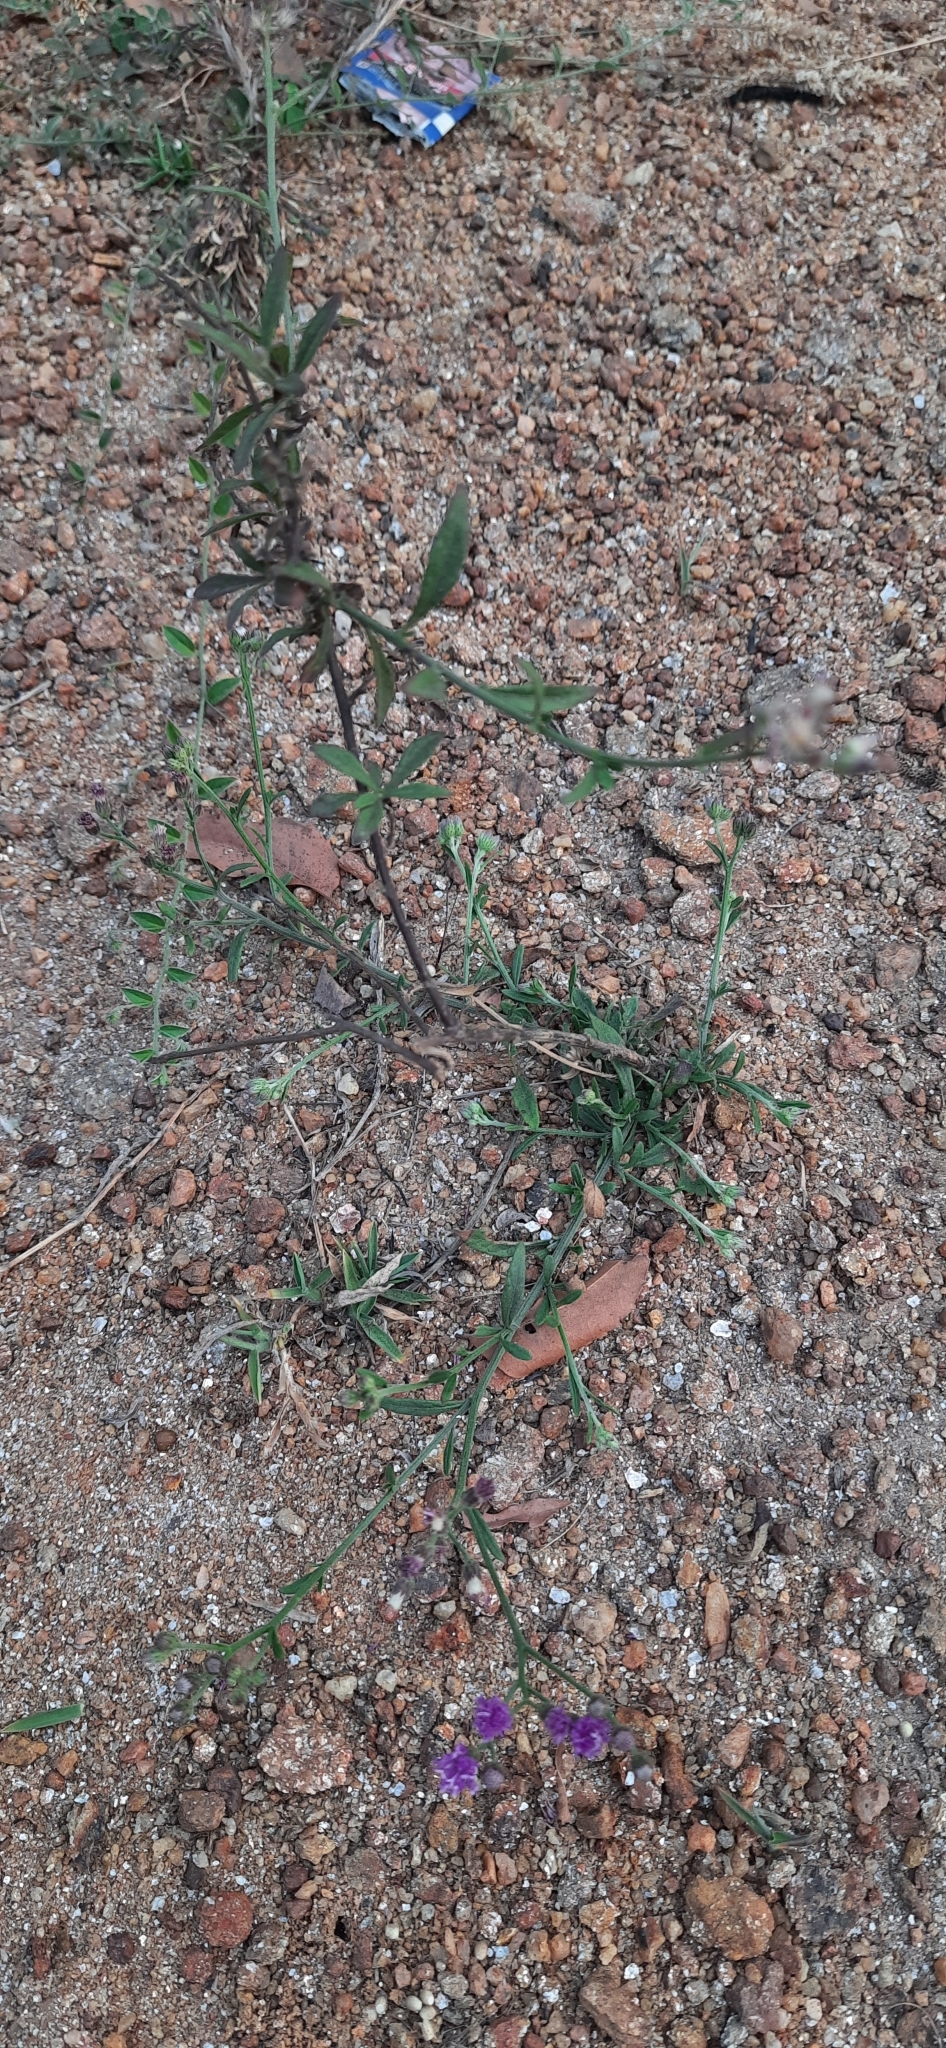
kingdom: Plantae
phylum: Tracheophyta
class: Magnoliopsida
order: Asterales
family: Asteraceae
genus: Cyanthillium
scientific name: Cyanthillium cinereum
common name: Little ironweed
